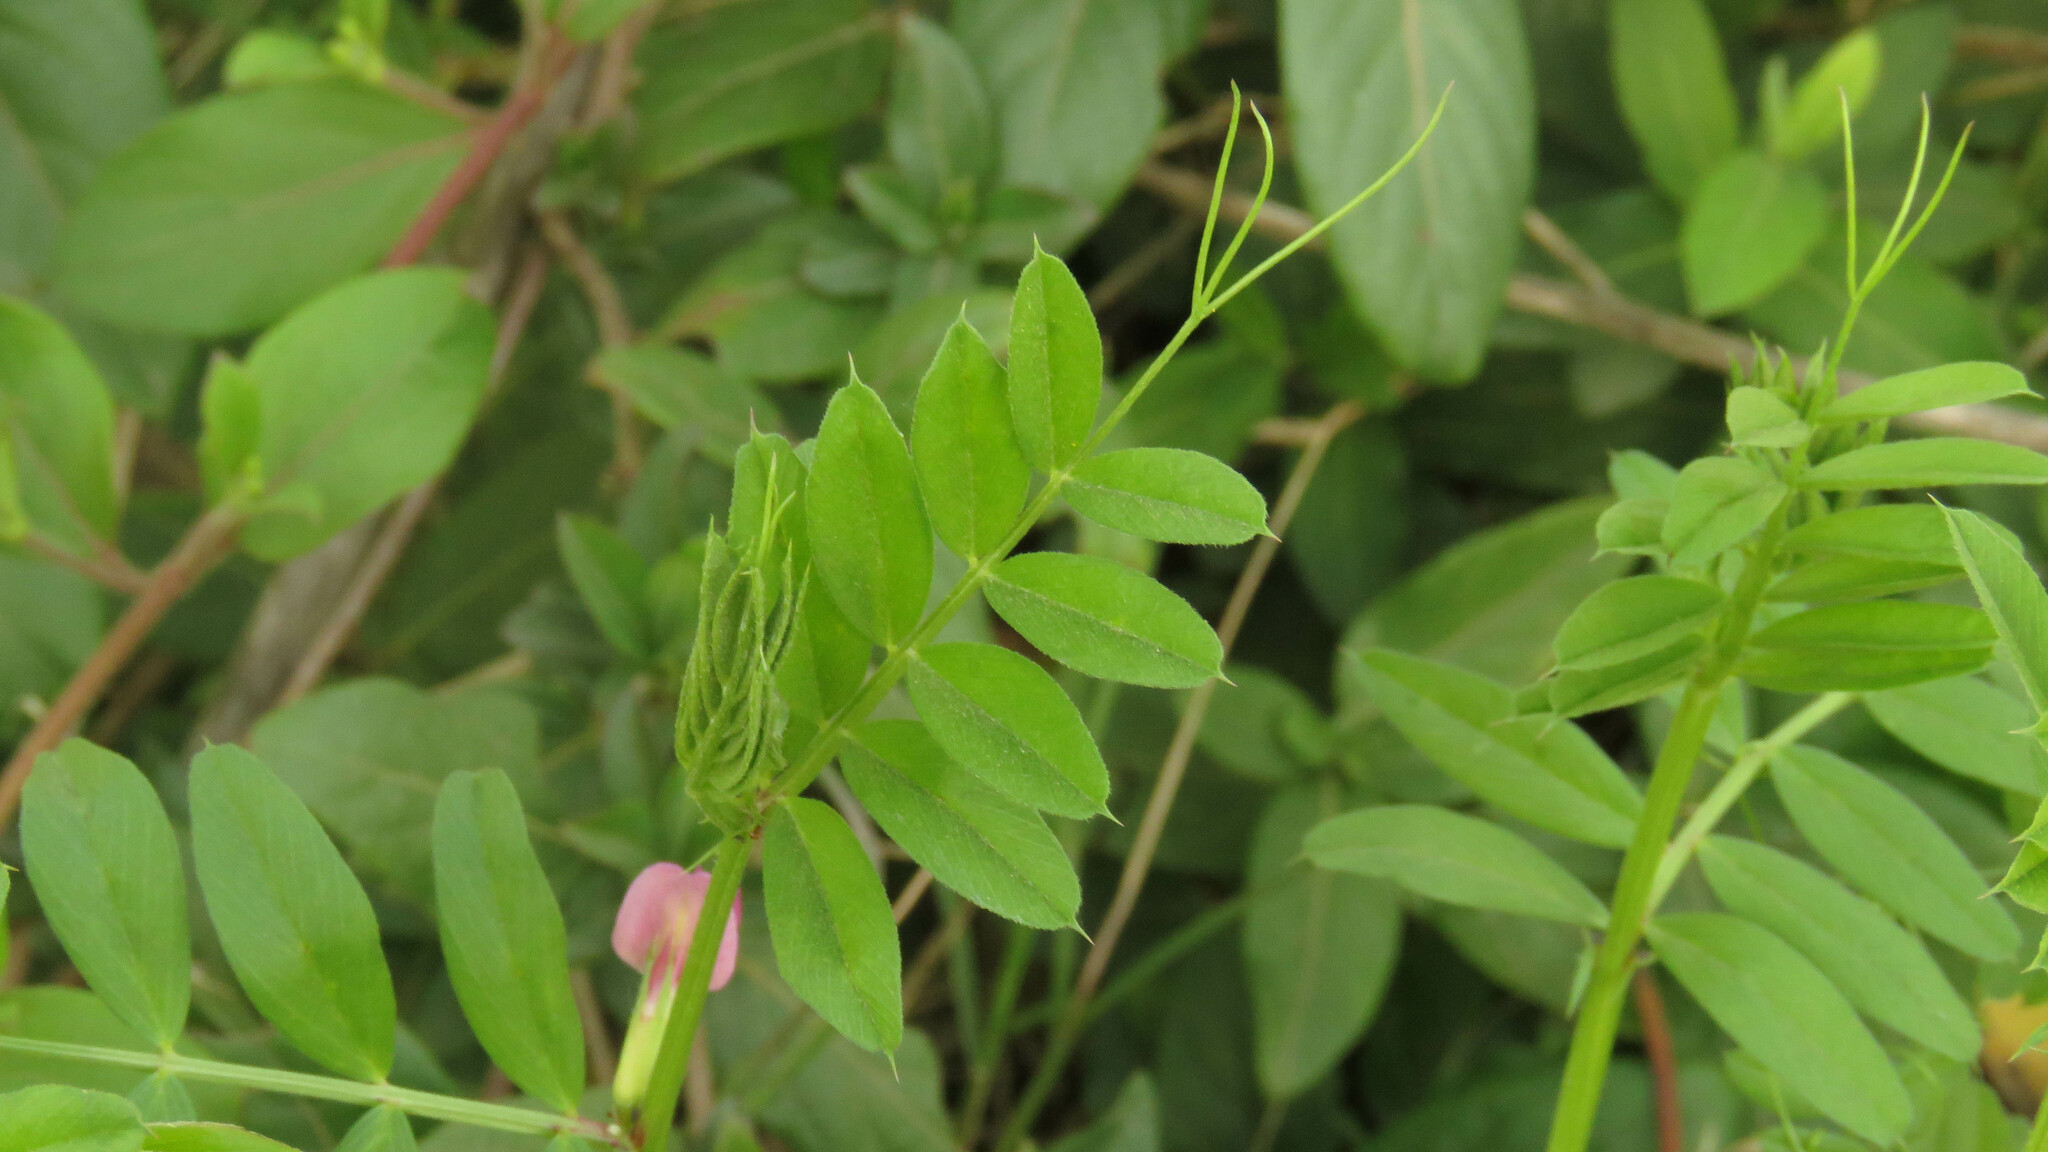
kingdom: Plantae
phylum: Tracheophyta
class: Magnoliopsida
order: Fabales
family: Fabaceae
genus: Vicia
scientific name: Vicia sativa
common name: Garden vetch
